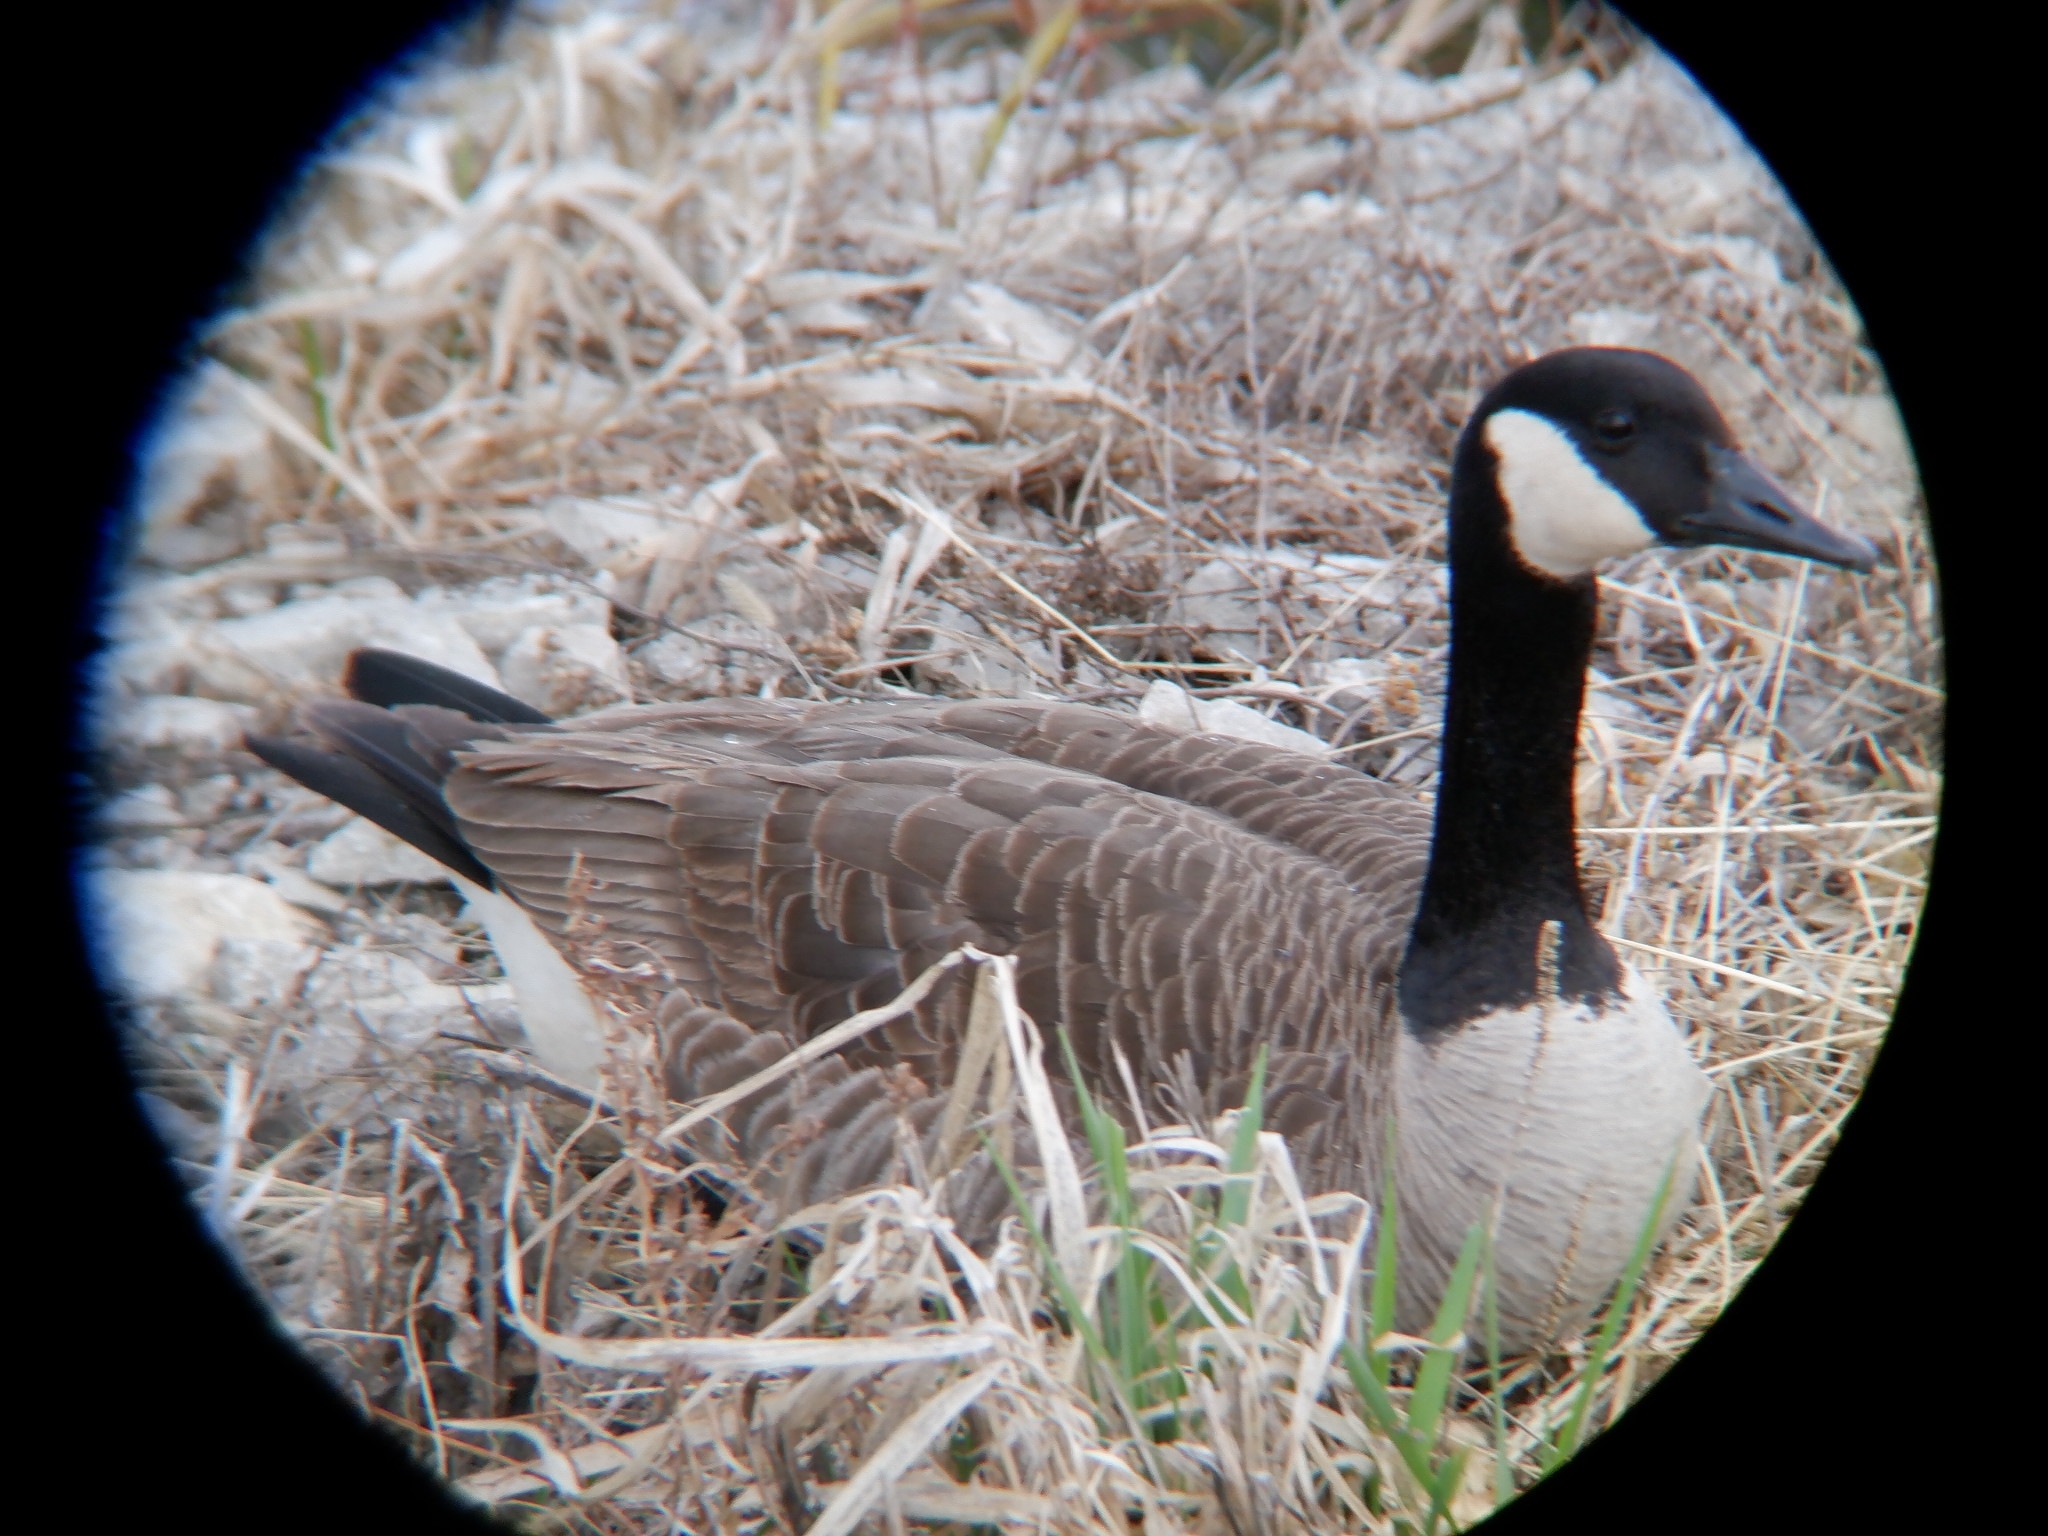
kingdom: Animalia
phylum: Chordata
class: Aves
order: Anseriformes
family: Anatidae
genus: Branta
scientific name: Branta canadensis
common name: Canada goose
